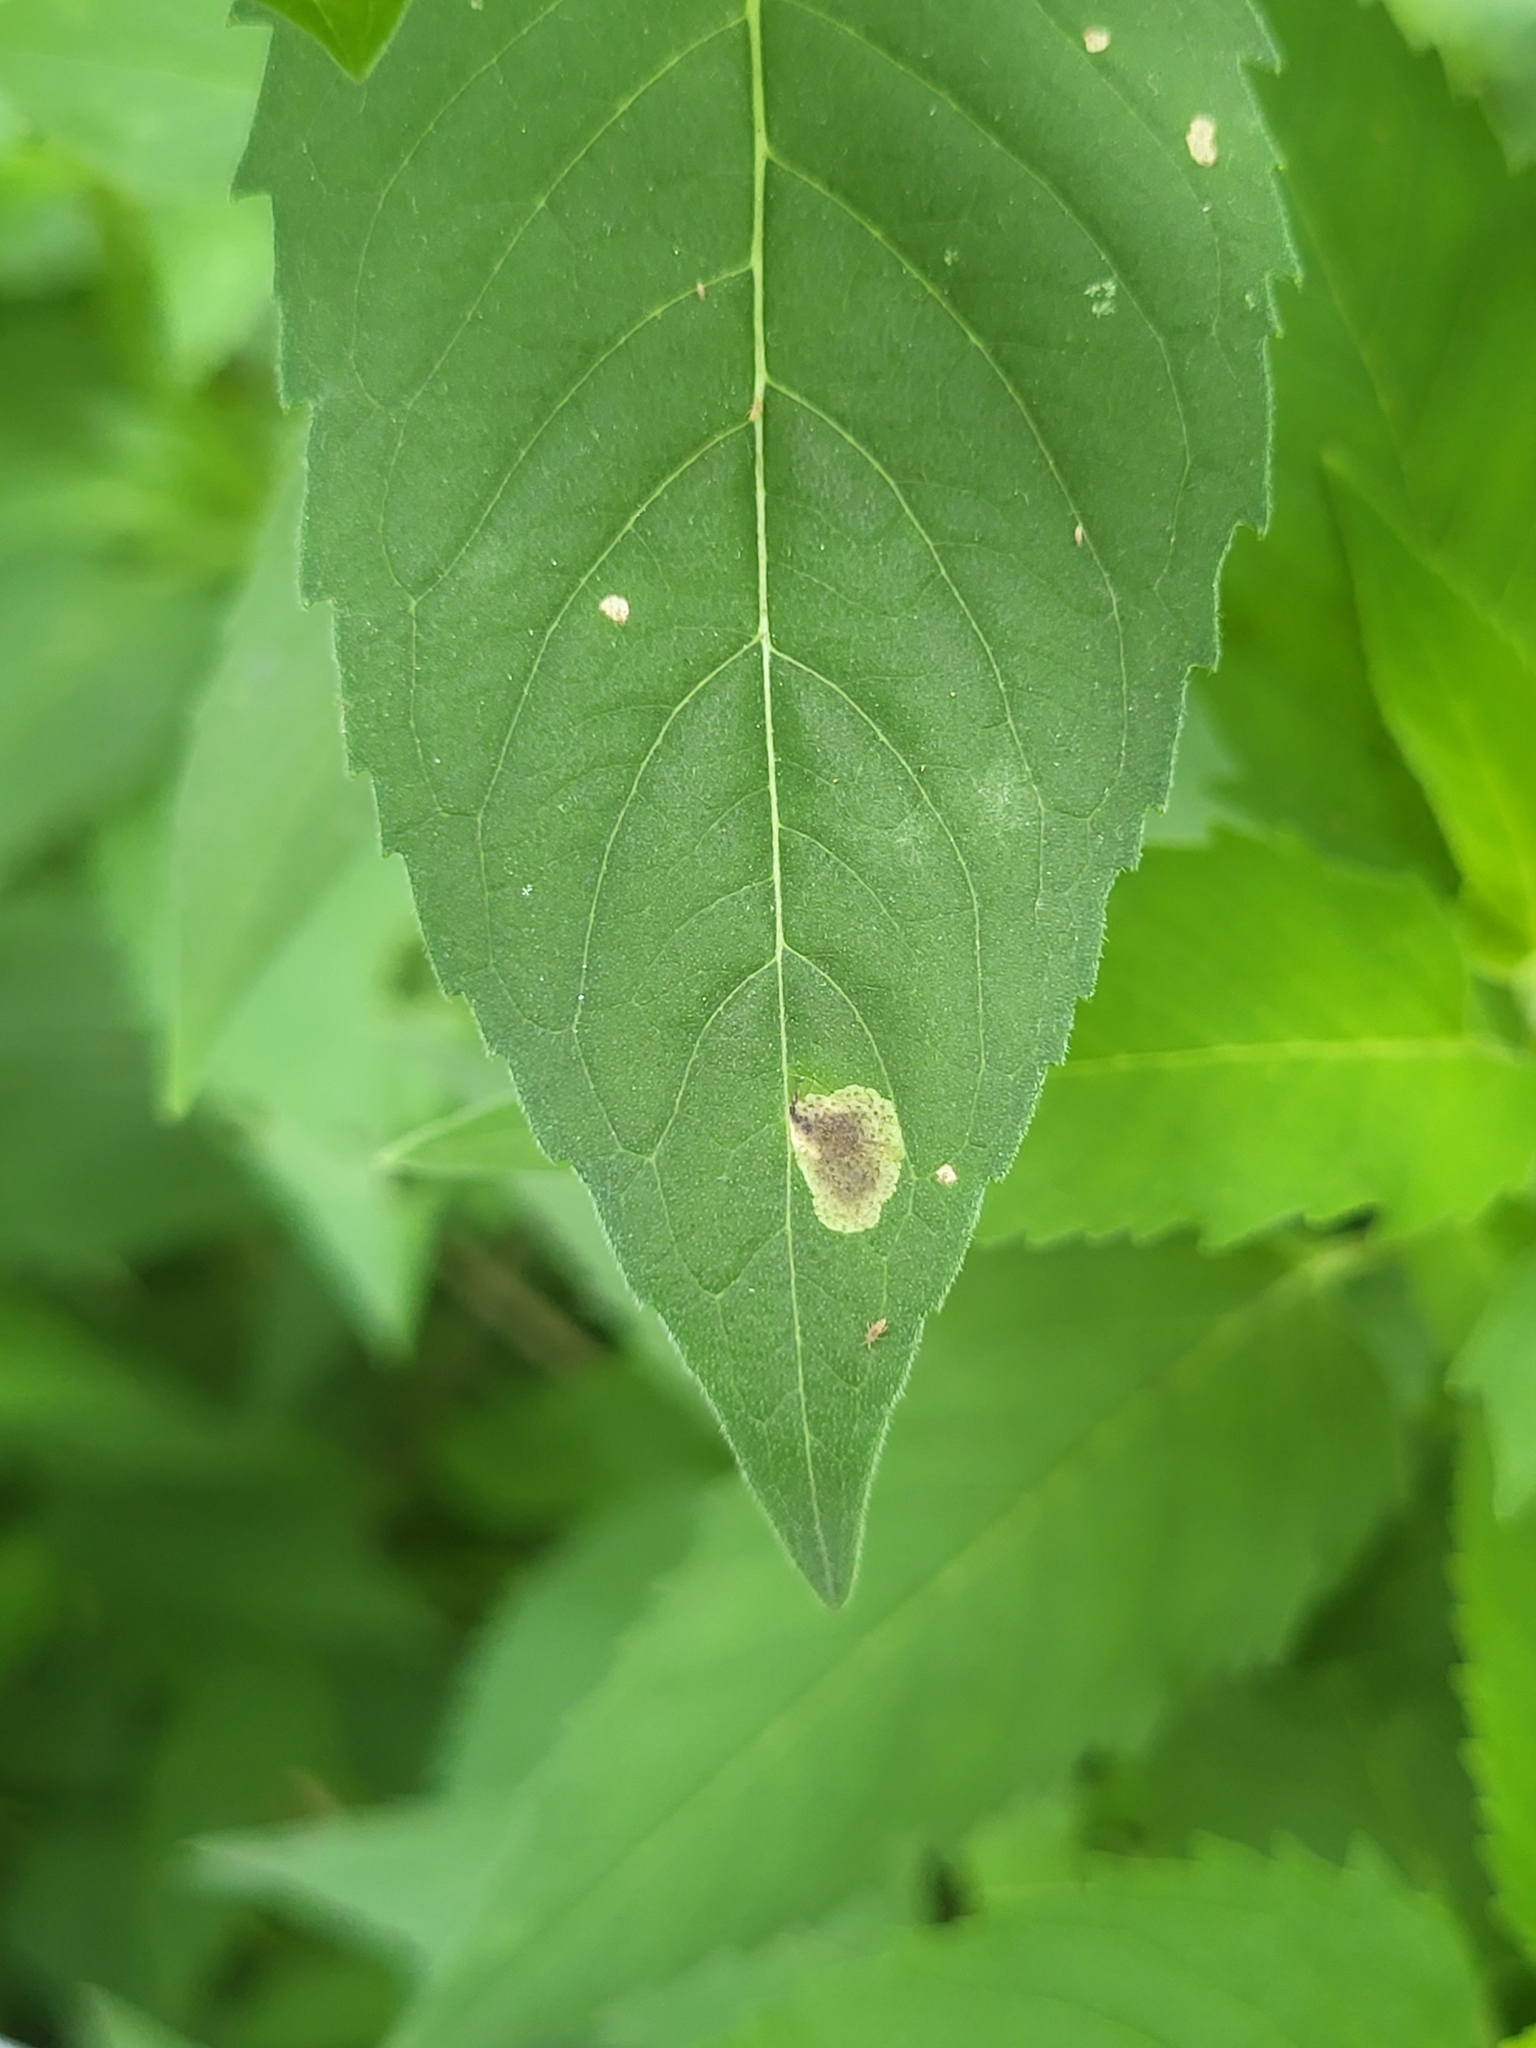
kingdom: Animalia
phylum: Arthropoda
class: Insecta
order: Diptera
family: Agromyzidae
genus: Calycomyza
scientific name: Calycomyza menthae
